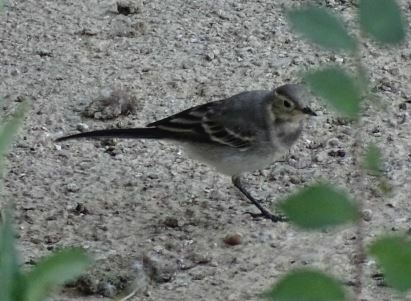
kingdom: Animalia
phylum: Chordata
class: Aves
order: Passeriformes
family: Motacillidae
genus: Motacilla
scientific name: Motacilla alba
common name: White wagtail
